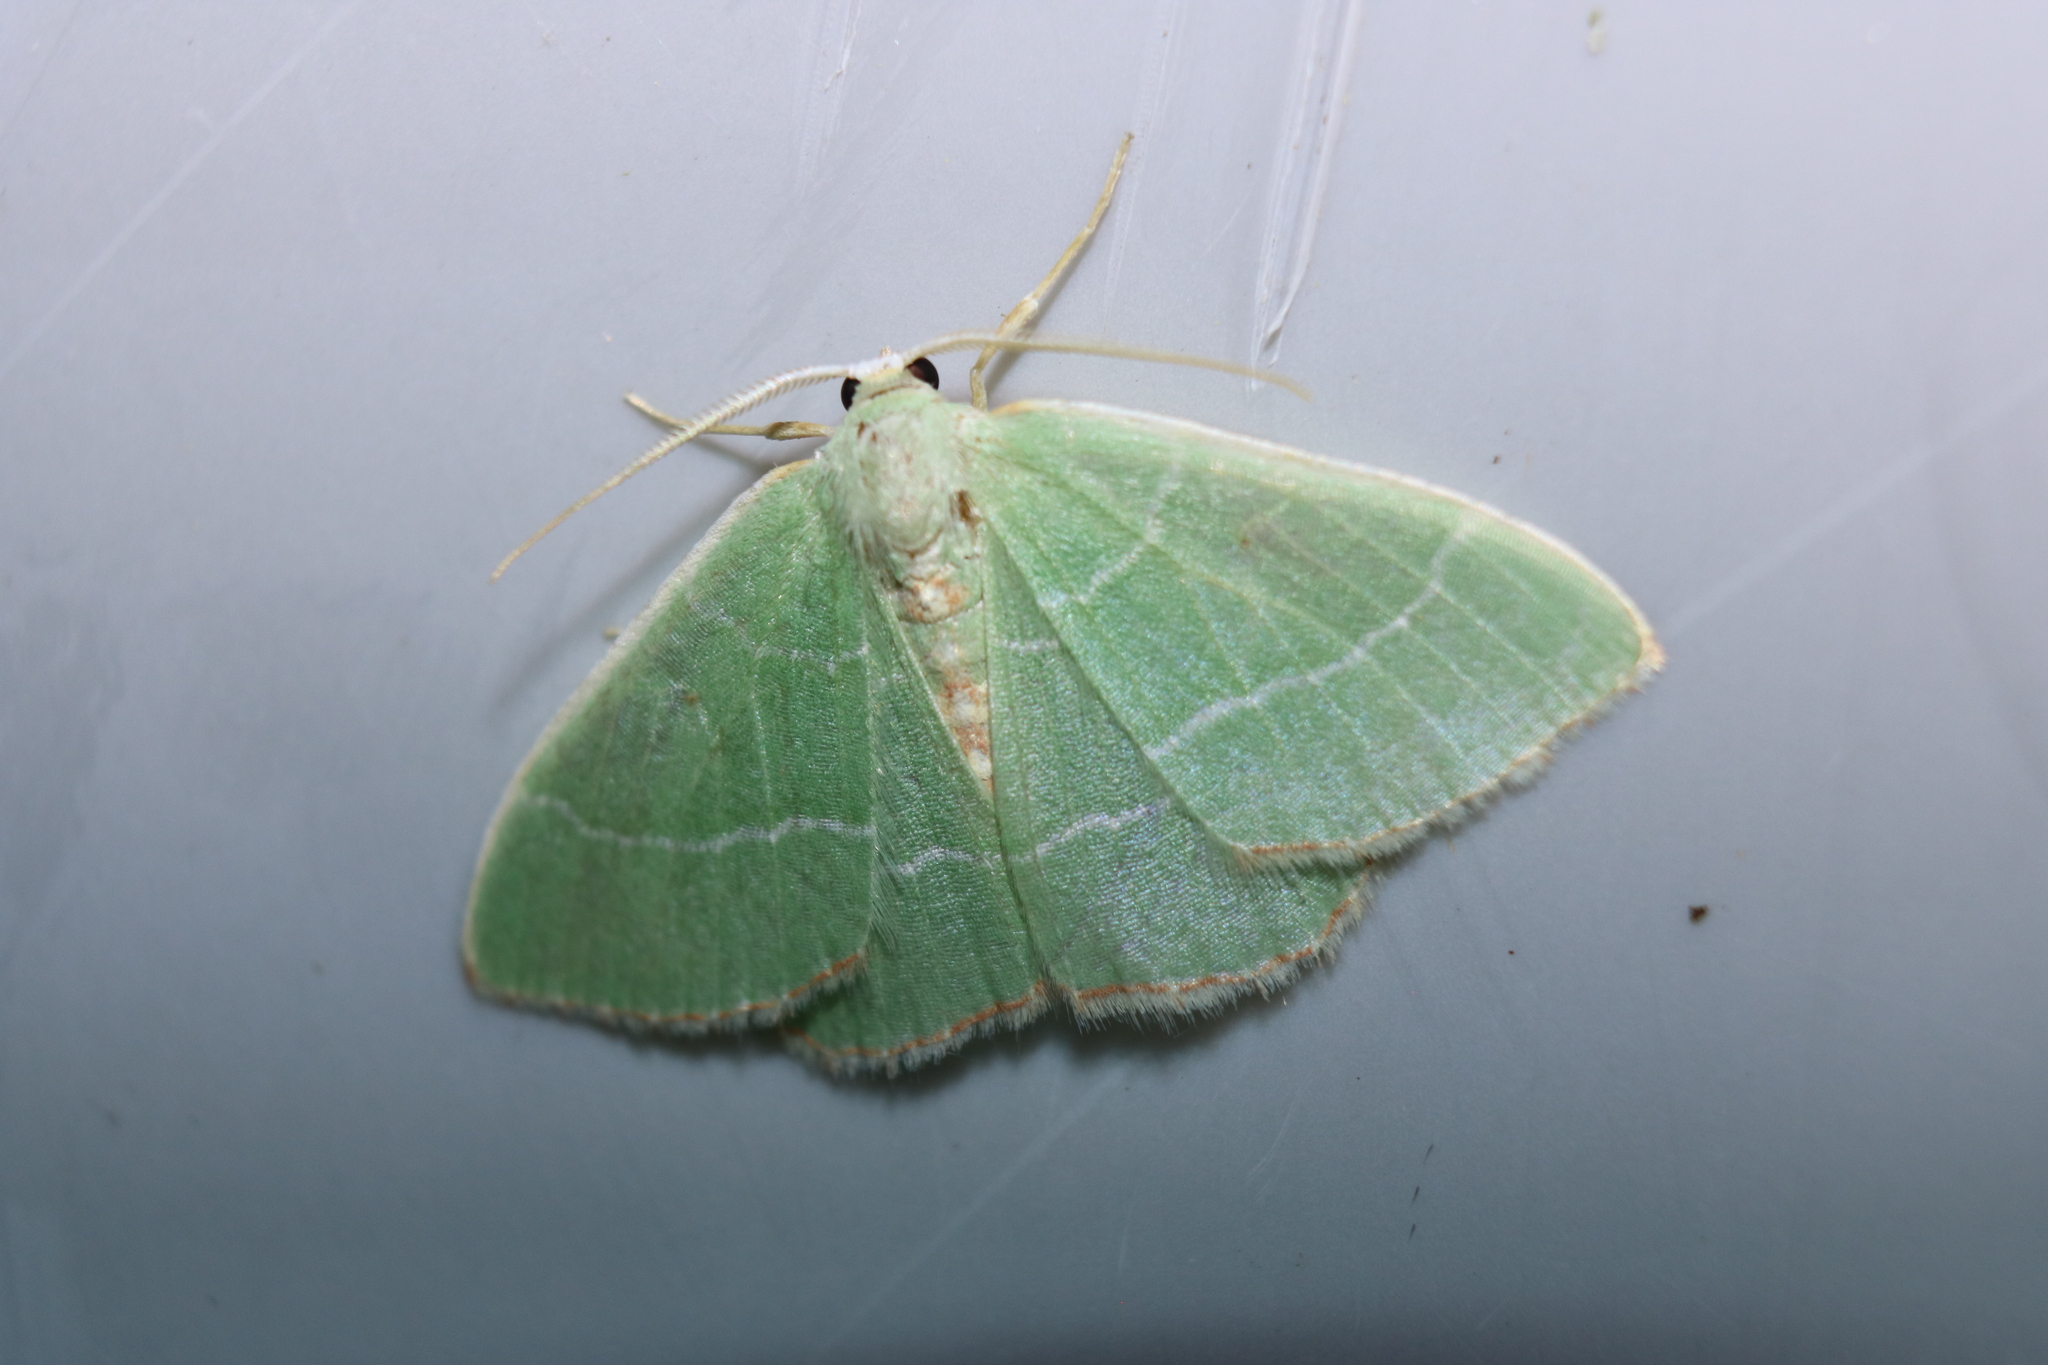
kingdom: Animalia
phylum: Arthropoda
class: Insecta
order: Lepidoptera
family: Geometridae
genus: Nemoria
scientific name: Nemoria bistriaria
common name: Red-fringed emerald
